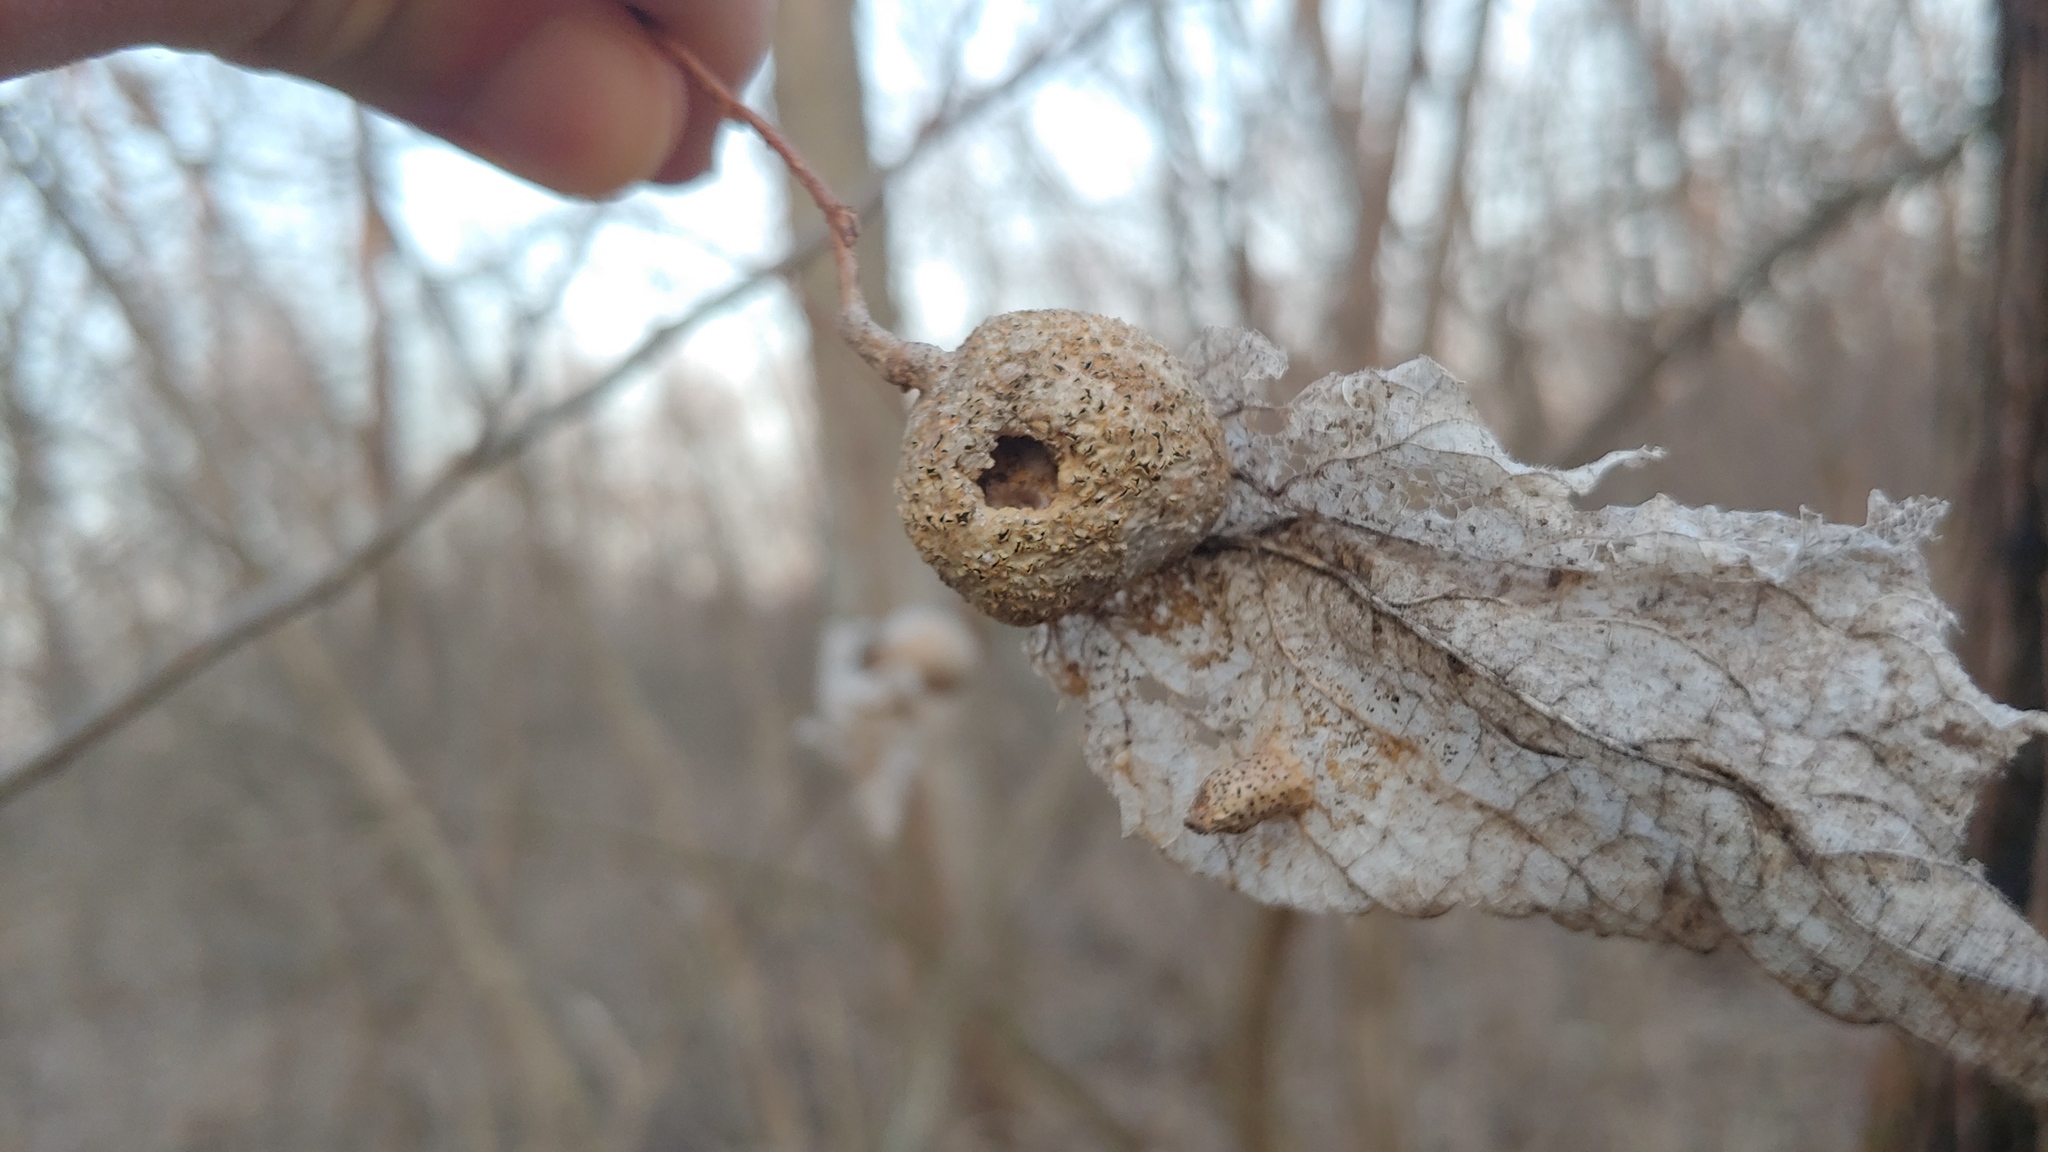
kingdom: Animalia
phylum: Arthropoda
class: Insecta
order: Hemiptera
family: Aphalaridae
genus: Pachypsylla
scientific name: Pachypsylla venusta
